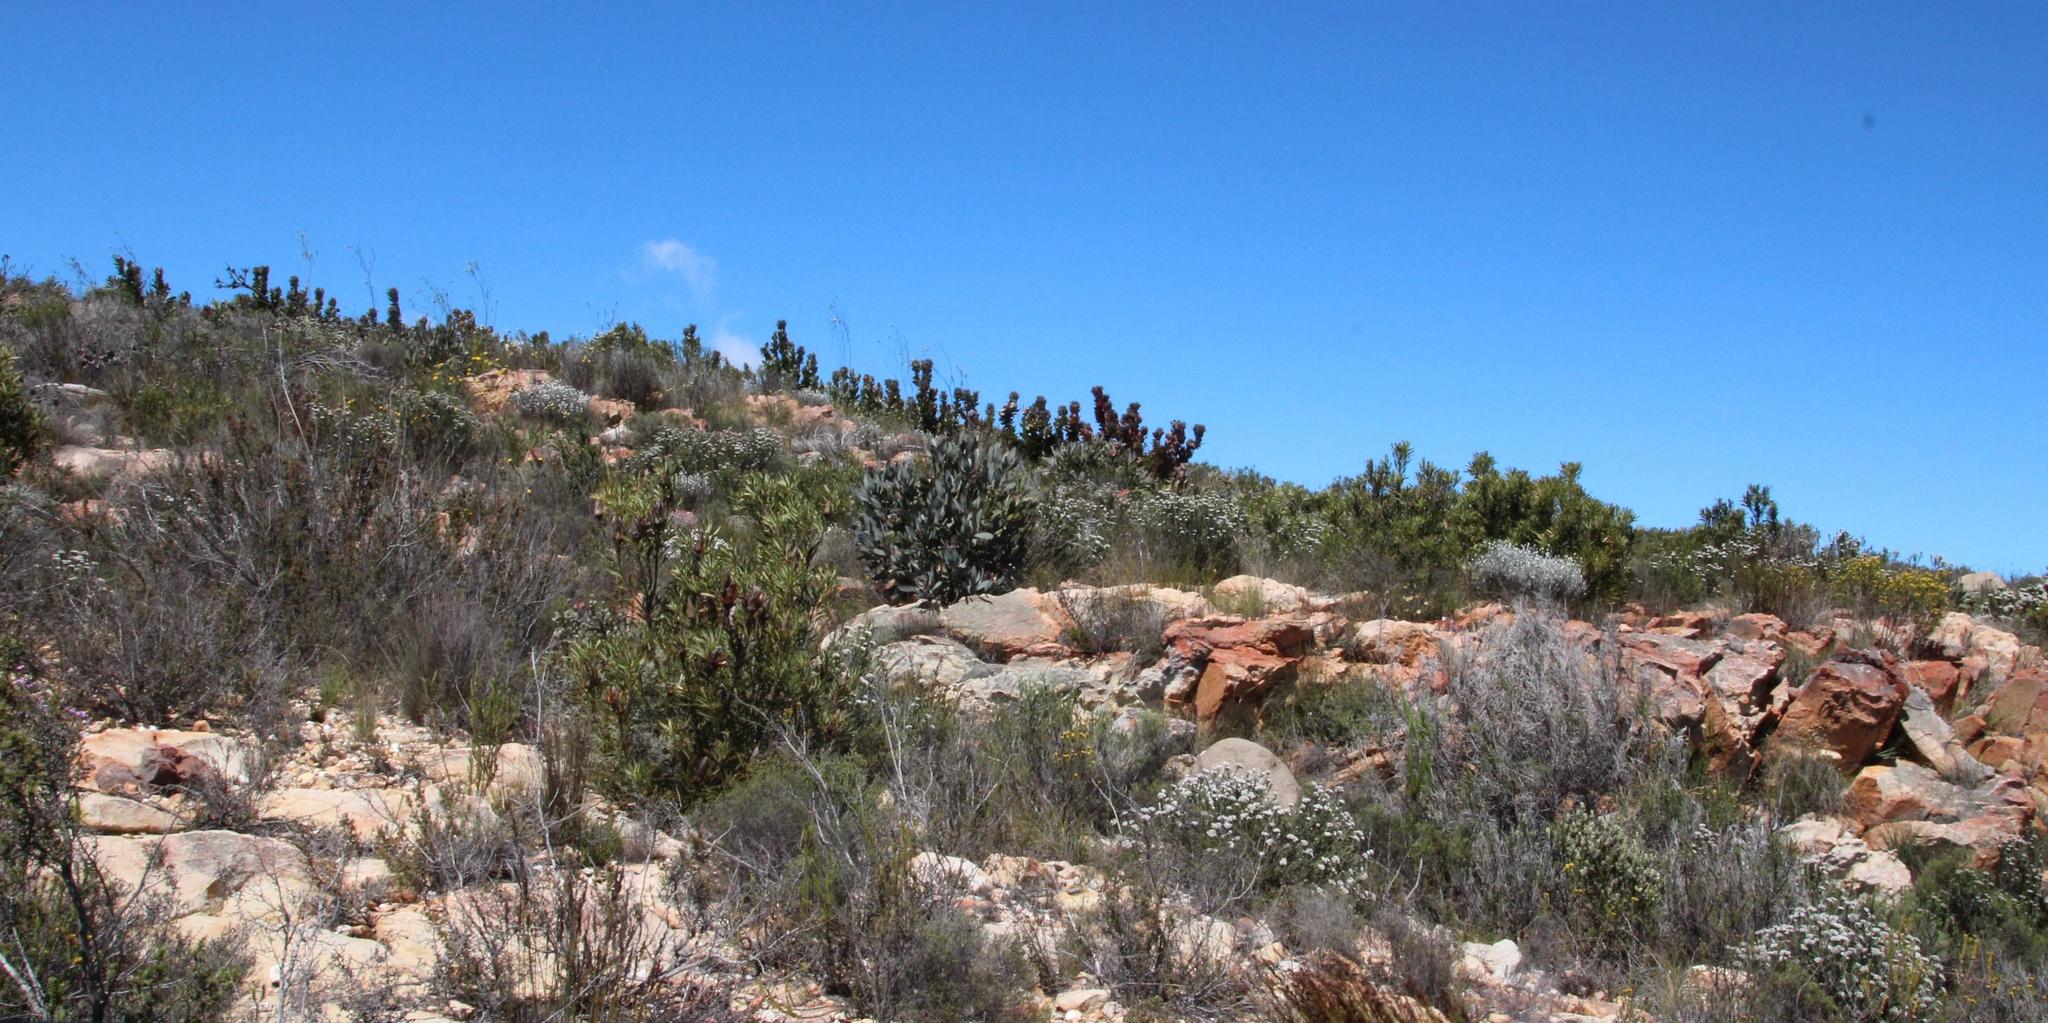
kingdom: Plantae
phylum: Tracheophyta
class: Magnoliopsida
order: Proteales
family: Proteaceae
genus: Protea
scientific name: Protea eximia
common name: Broad-leaved sugarbush
